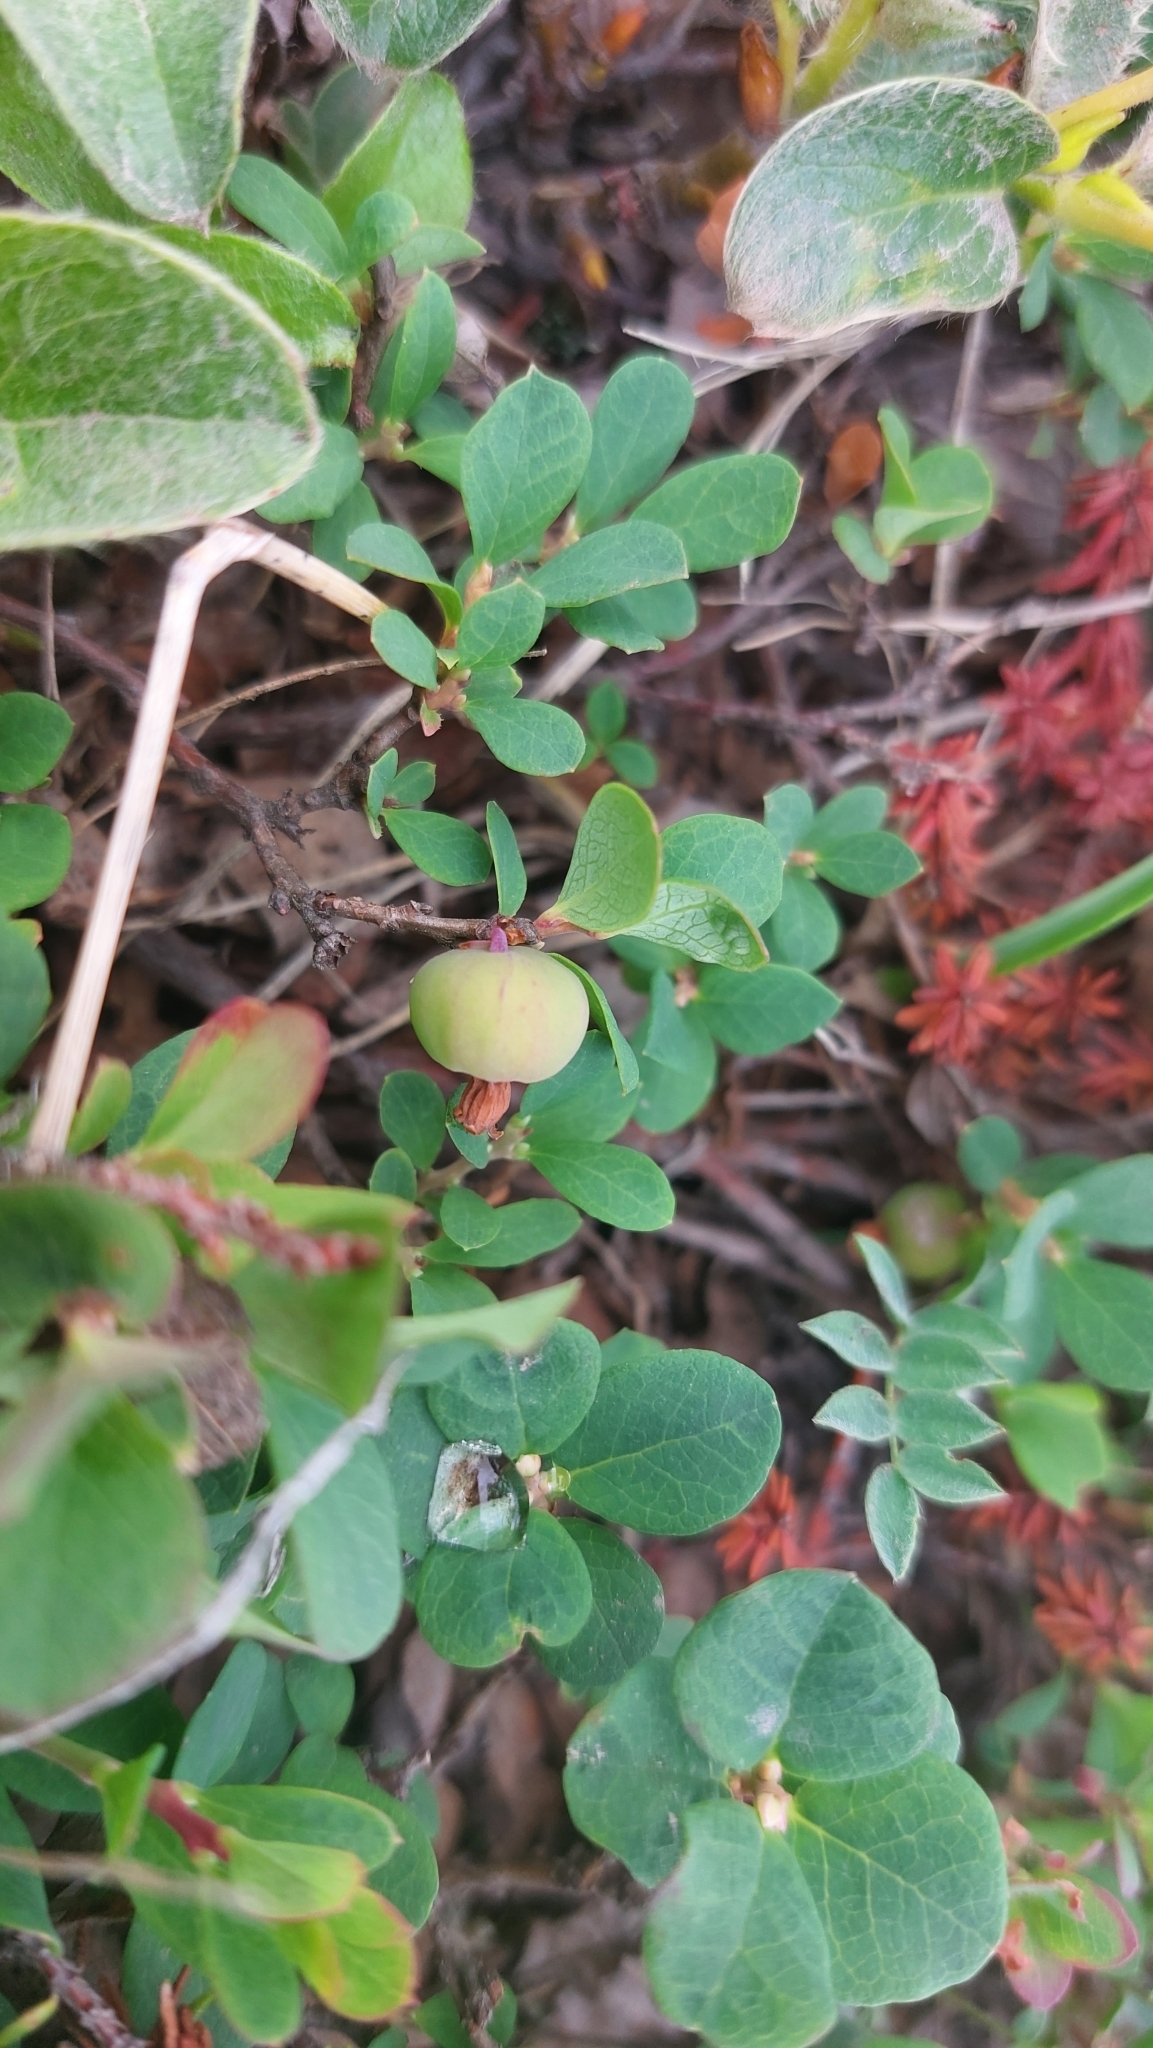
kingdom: Plantae
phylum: Tracheophyta
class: Magnoliopsida
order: Ericales
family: Ericaceae
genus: Vaccinium
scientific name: Vaccinium uliginosum
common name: Bog bilberry
